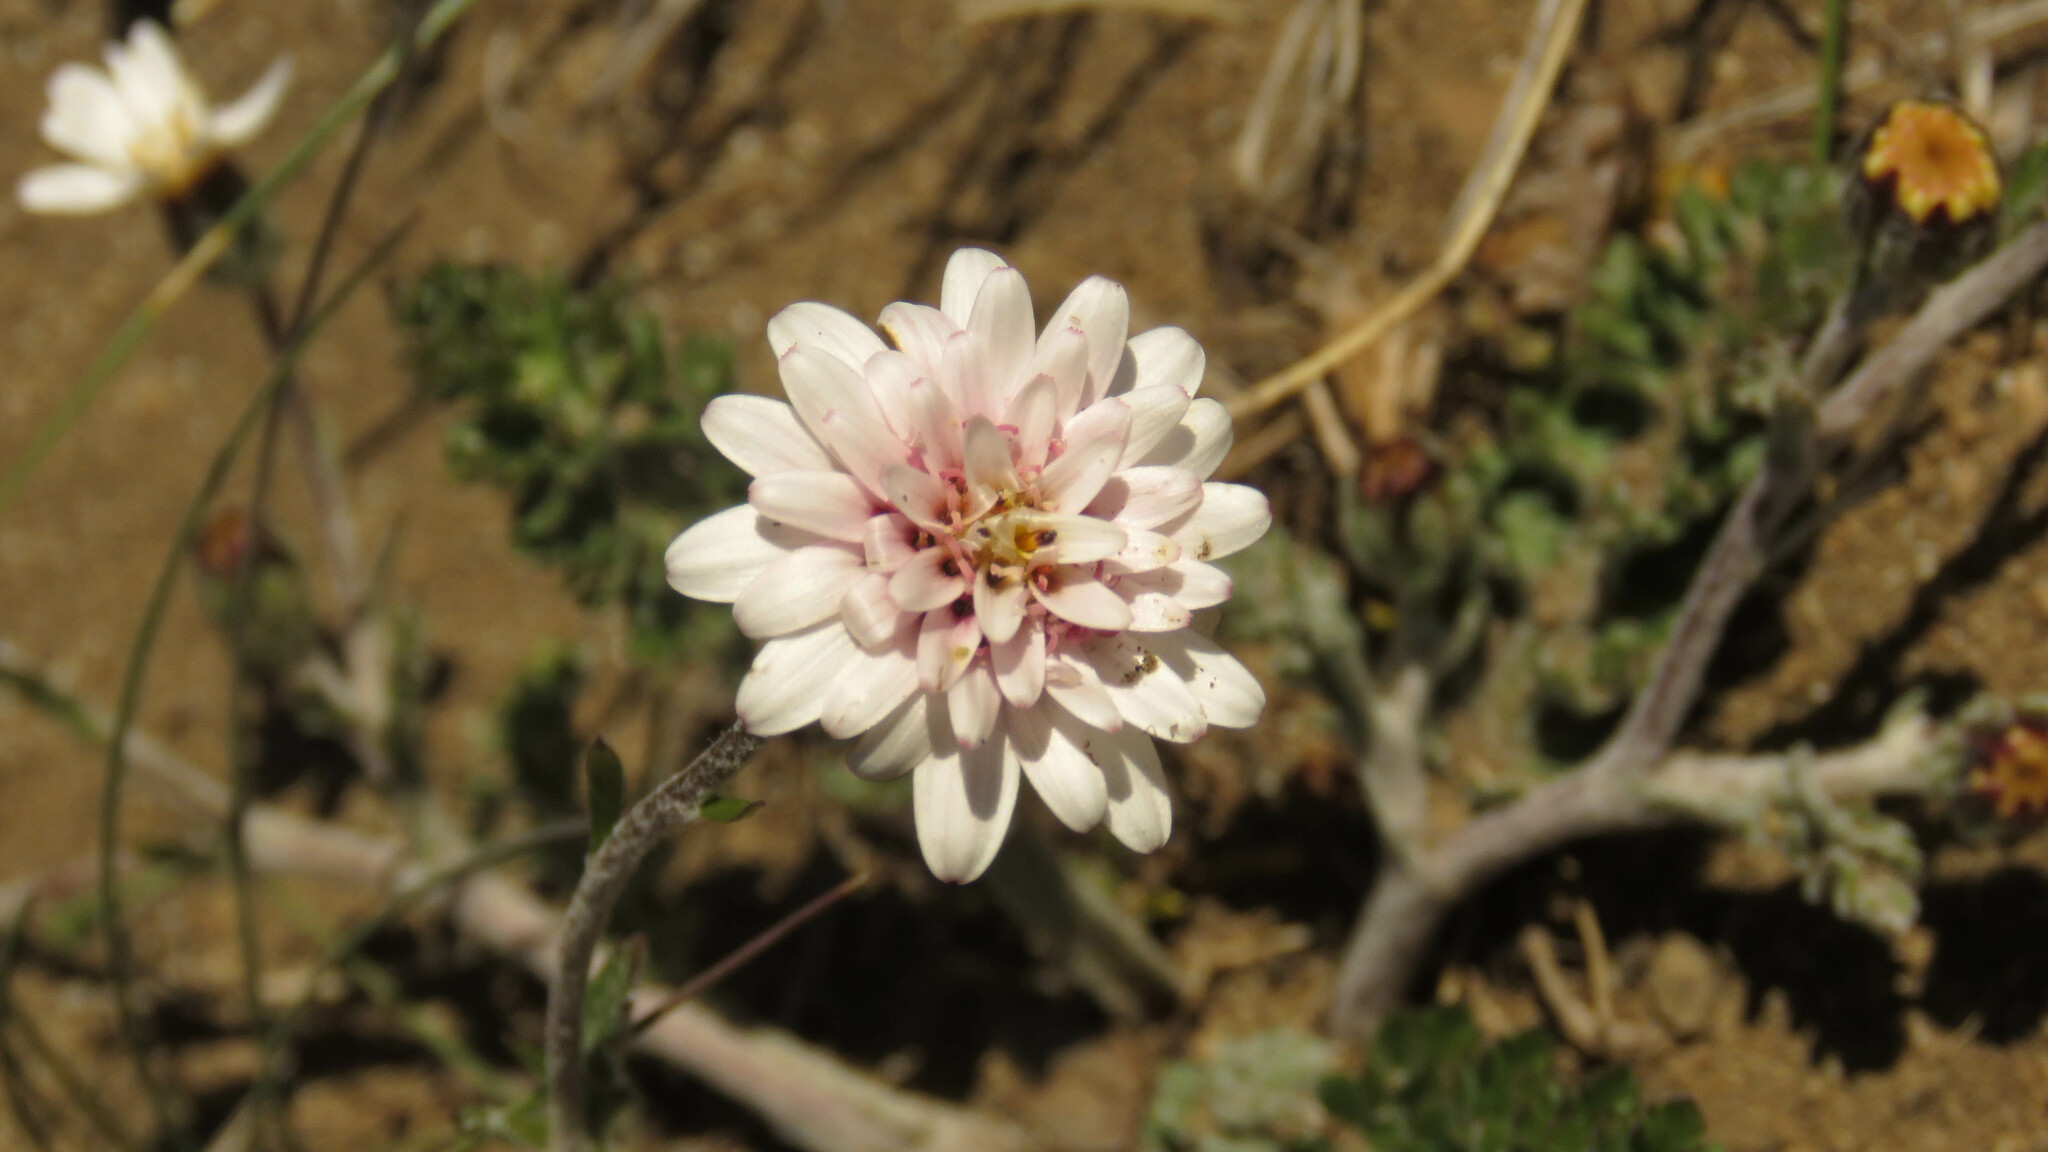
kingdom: Plantae
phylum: Tracheophyta
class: Magnoliopsida
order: Asterales
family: Asteraceae
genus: Leucheria
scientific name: Leucheria millefolium
